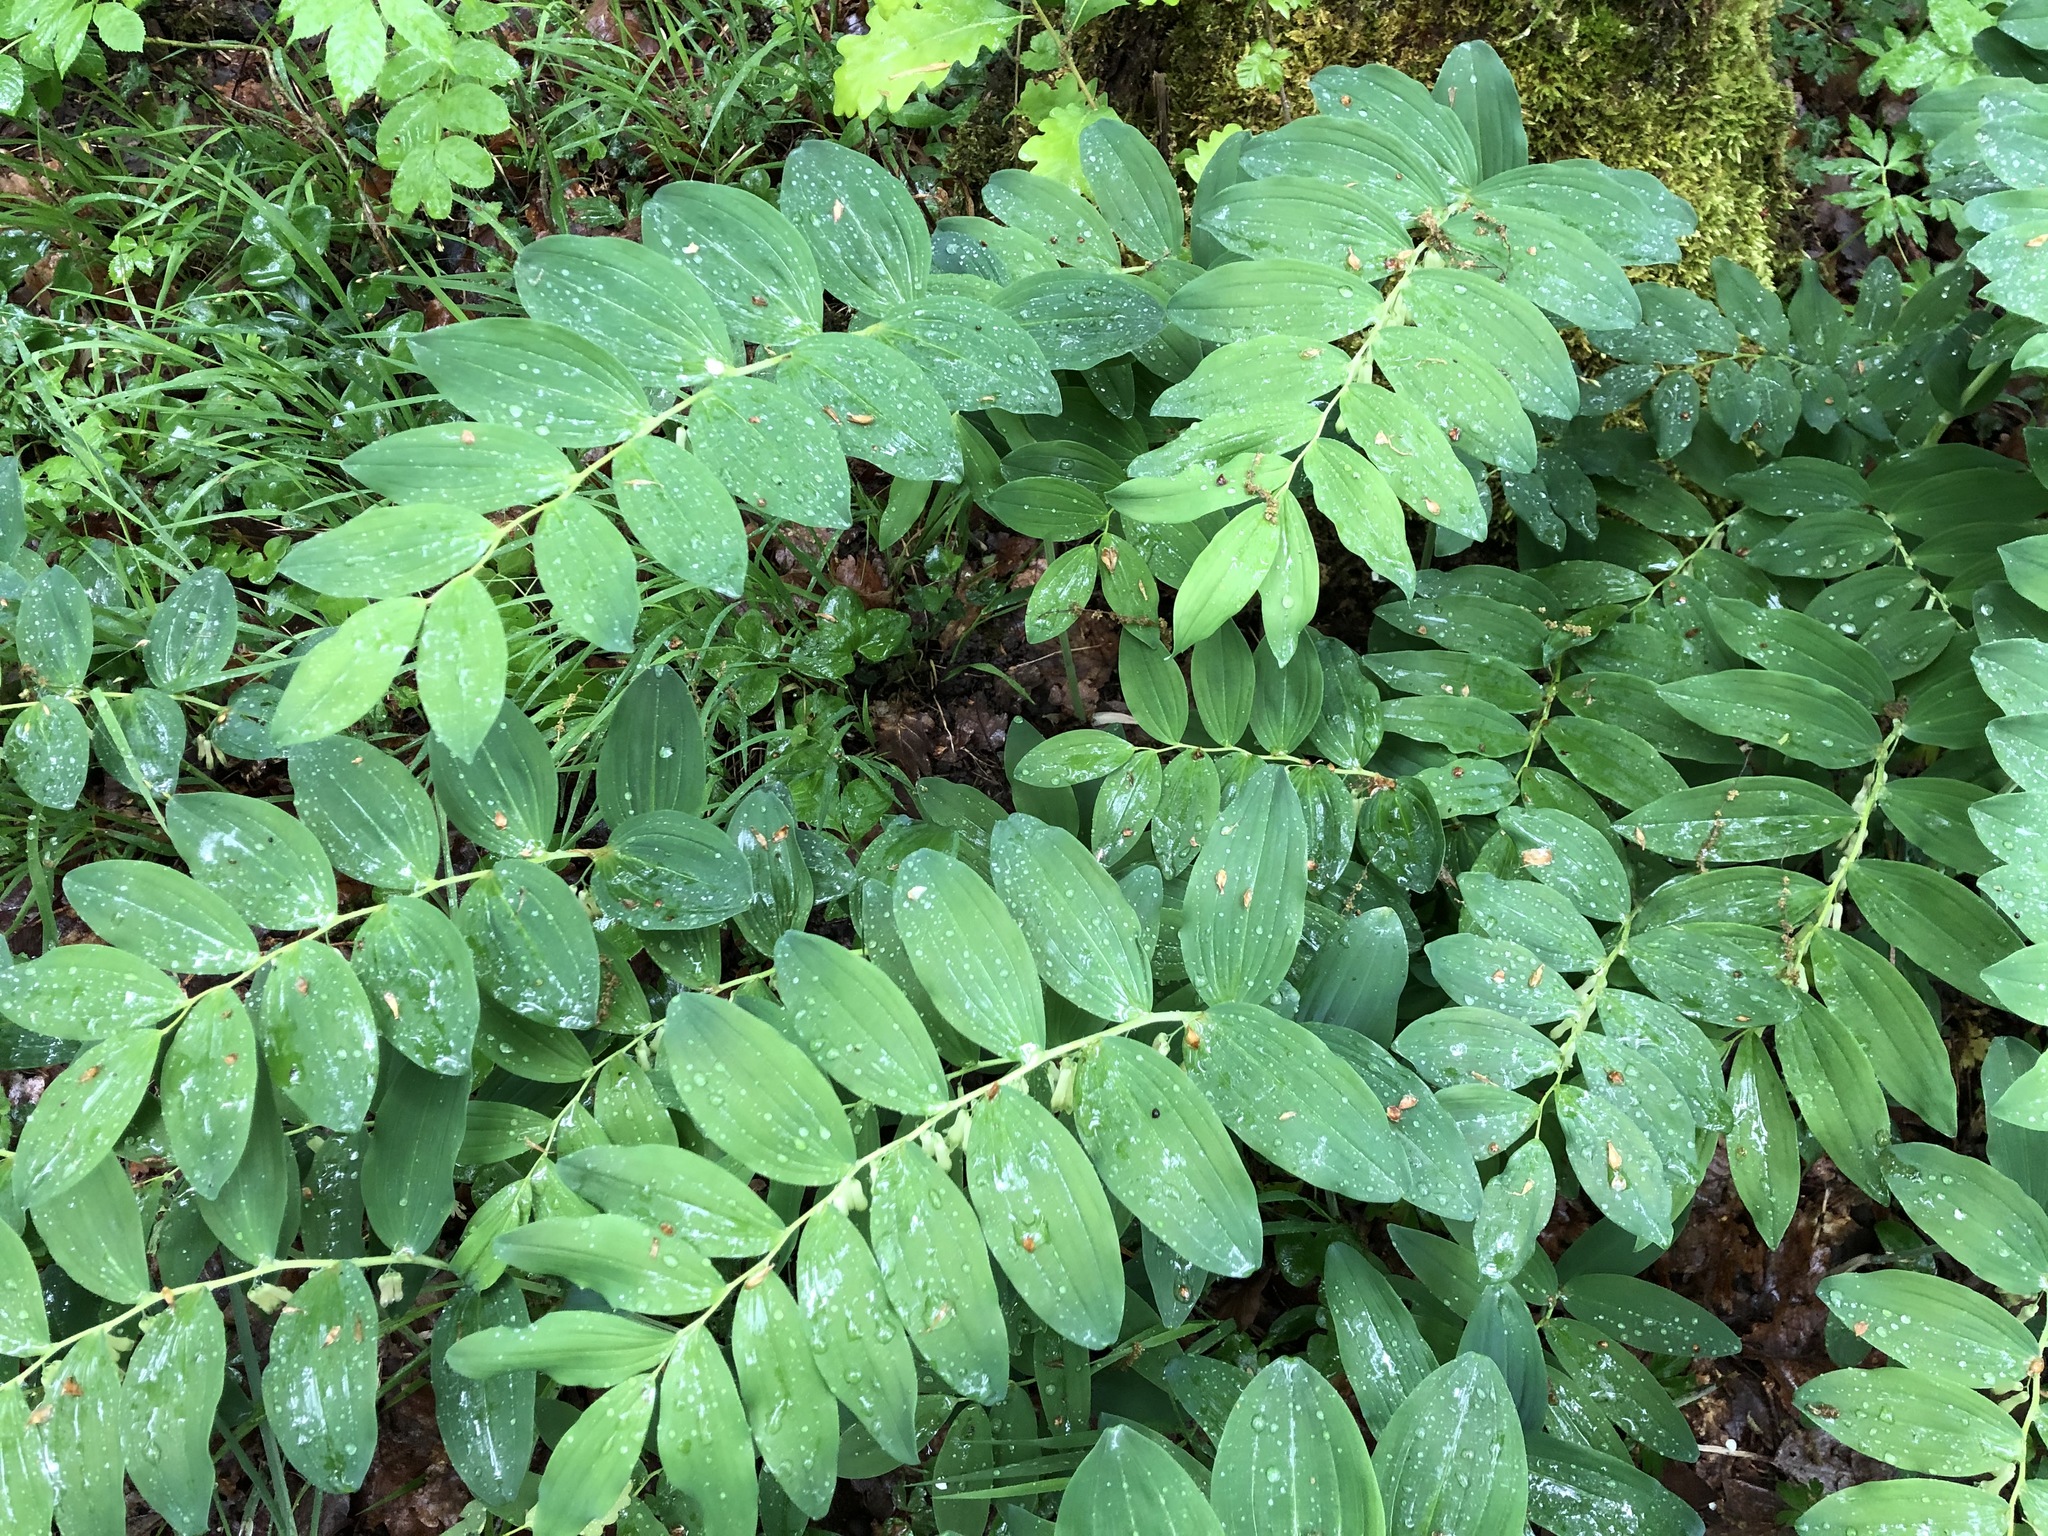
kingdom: Plantae
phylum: Tracheophyta
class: Liliopsida
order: Asparagales
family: Asparagaceae
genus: Polygonatum
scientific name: Polygonatum multiflorum
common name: Solomon's-seal
